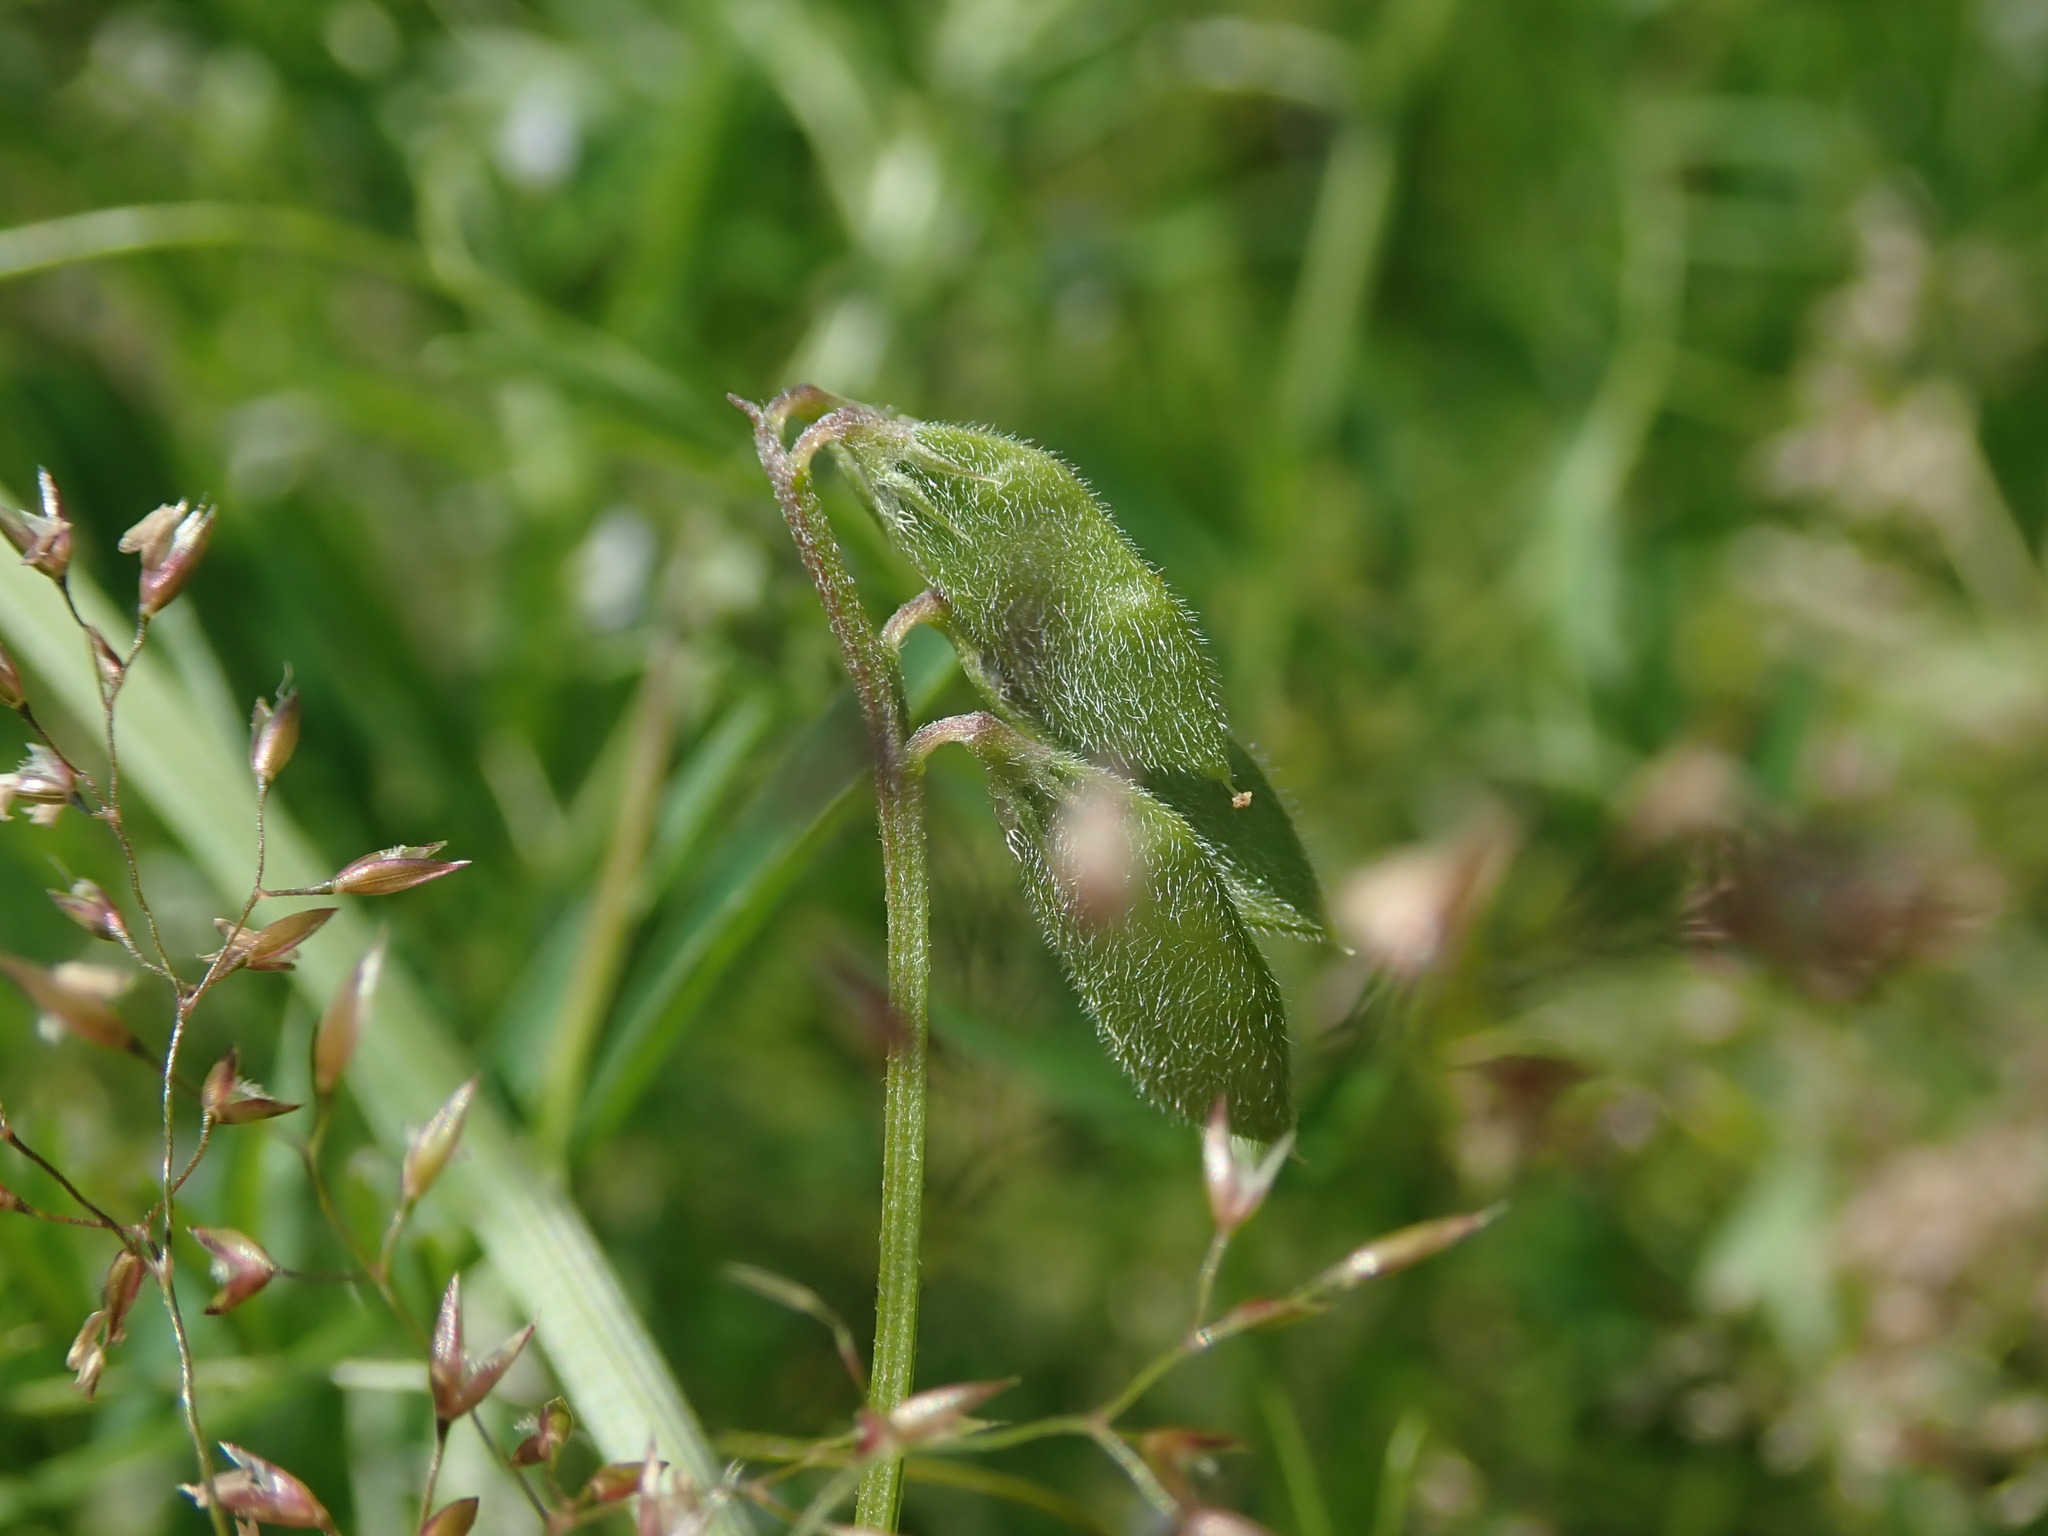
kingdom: Plantae
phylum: Tracheophyta
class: Magnoliopsida
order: Fabales
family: Fabaceae
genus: Vicia
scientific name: Vicia hirsuta
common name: Tiny vetch
